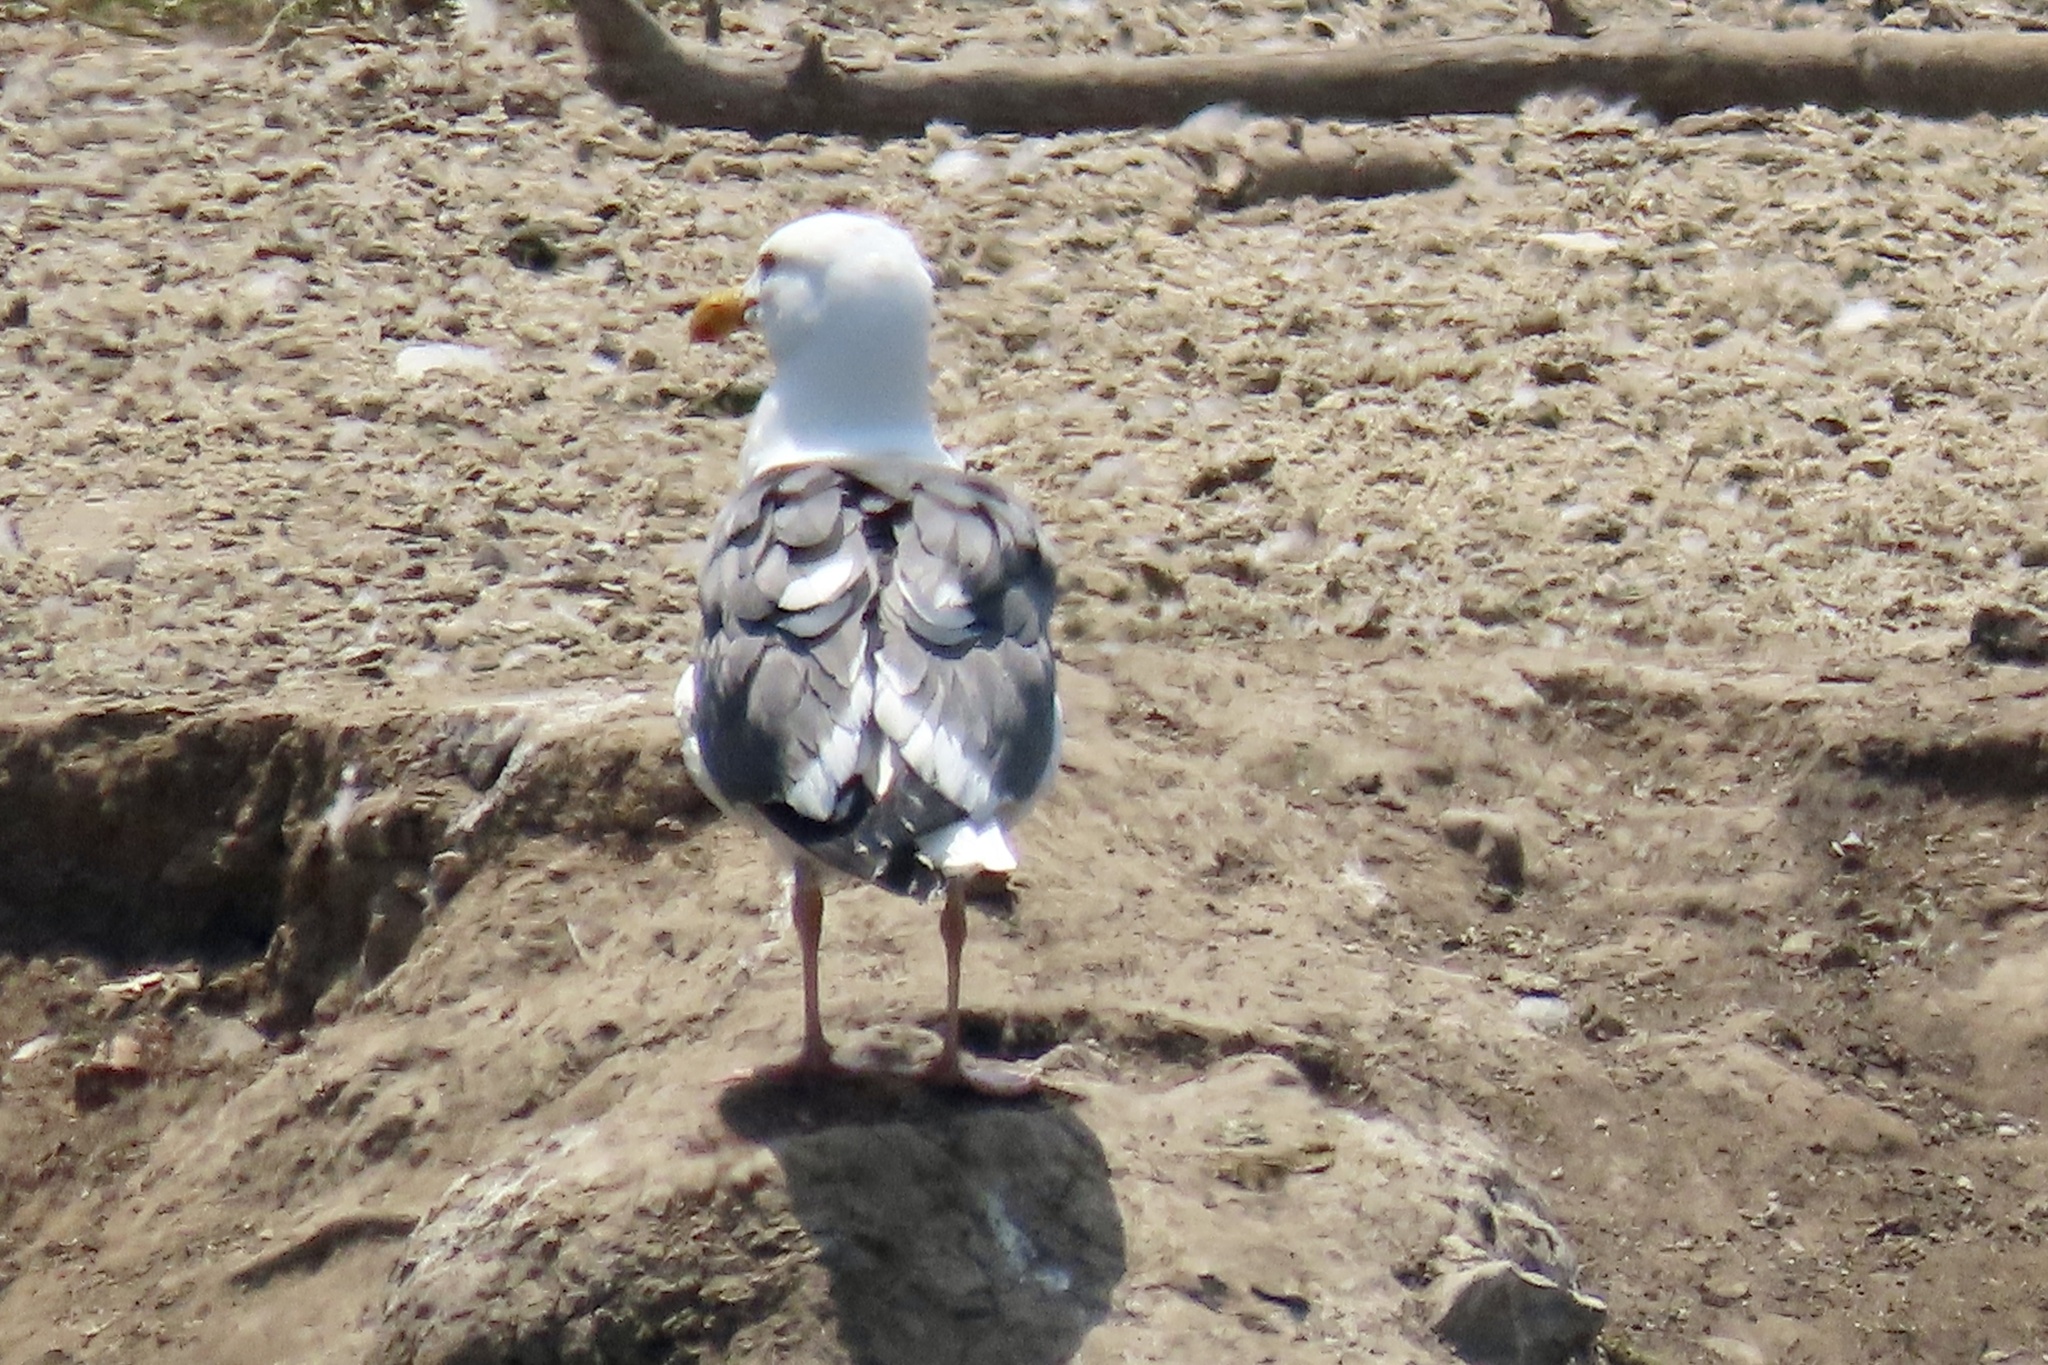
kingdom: Animalia
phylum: Chordata
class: Aves
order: Charadriiformes
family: Laridae
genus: Larus
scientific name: Larus occidentalis
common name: Western gull
